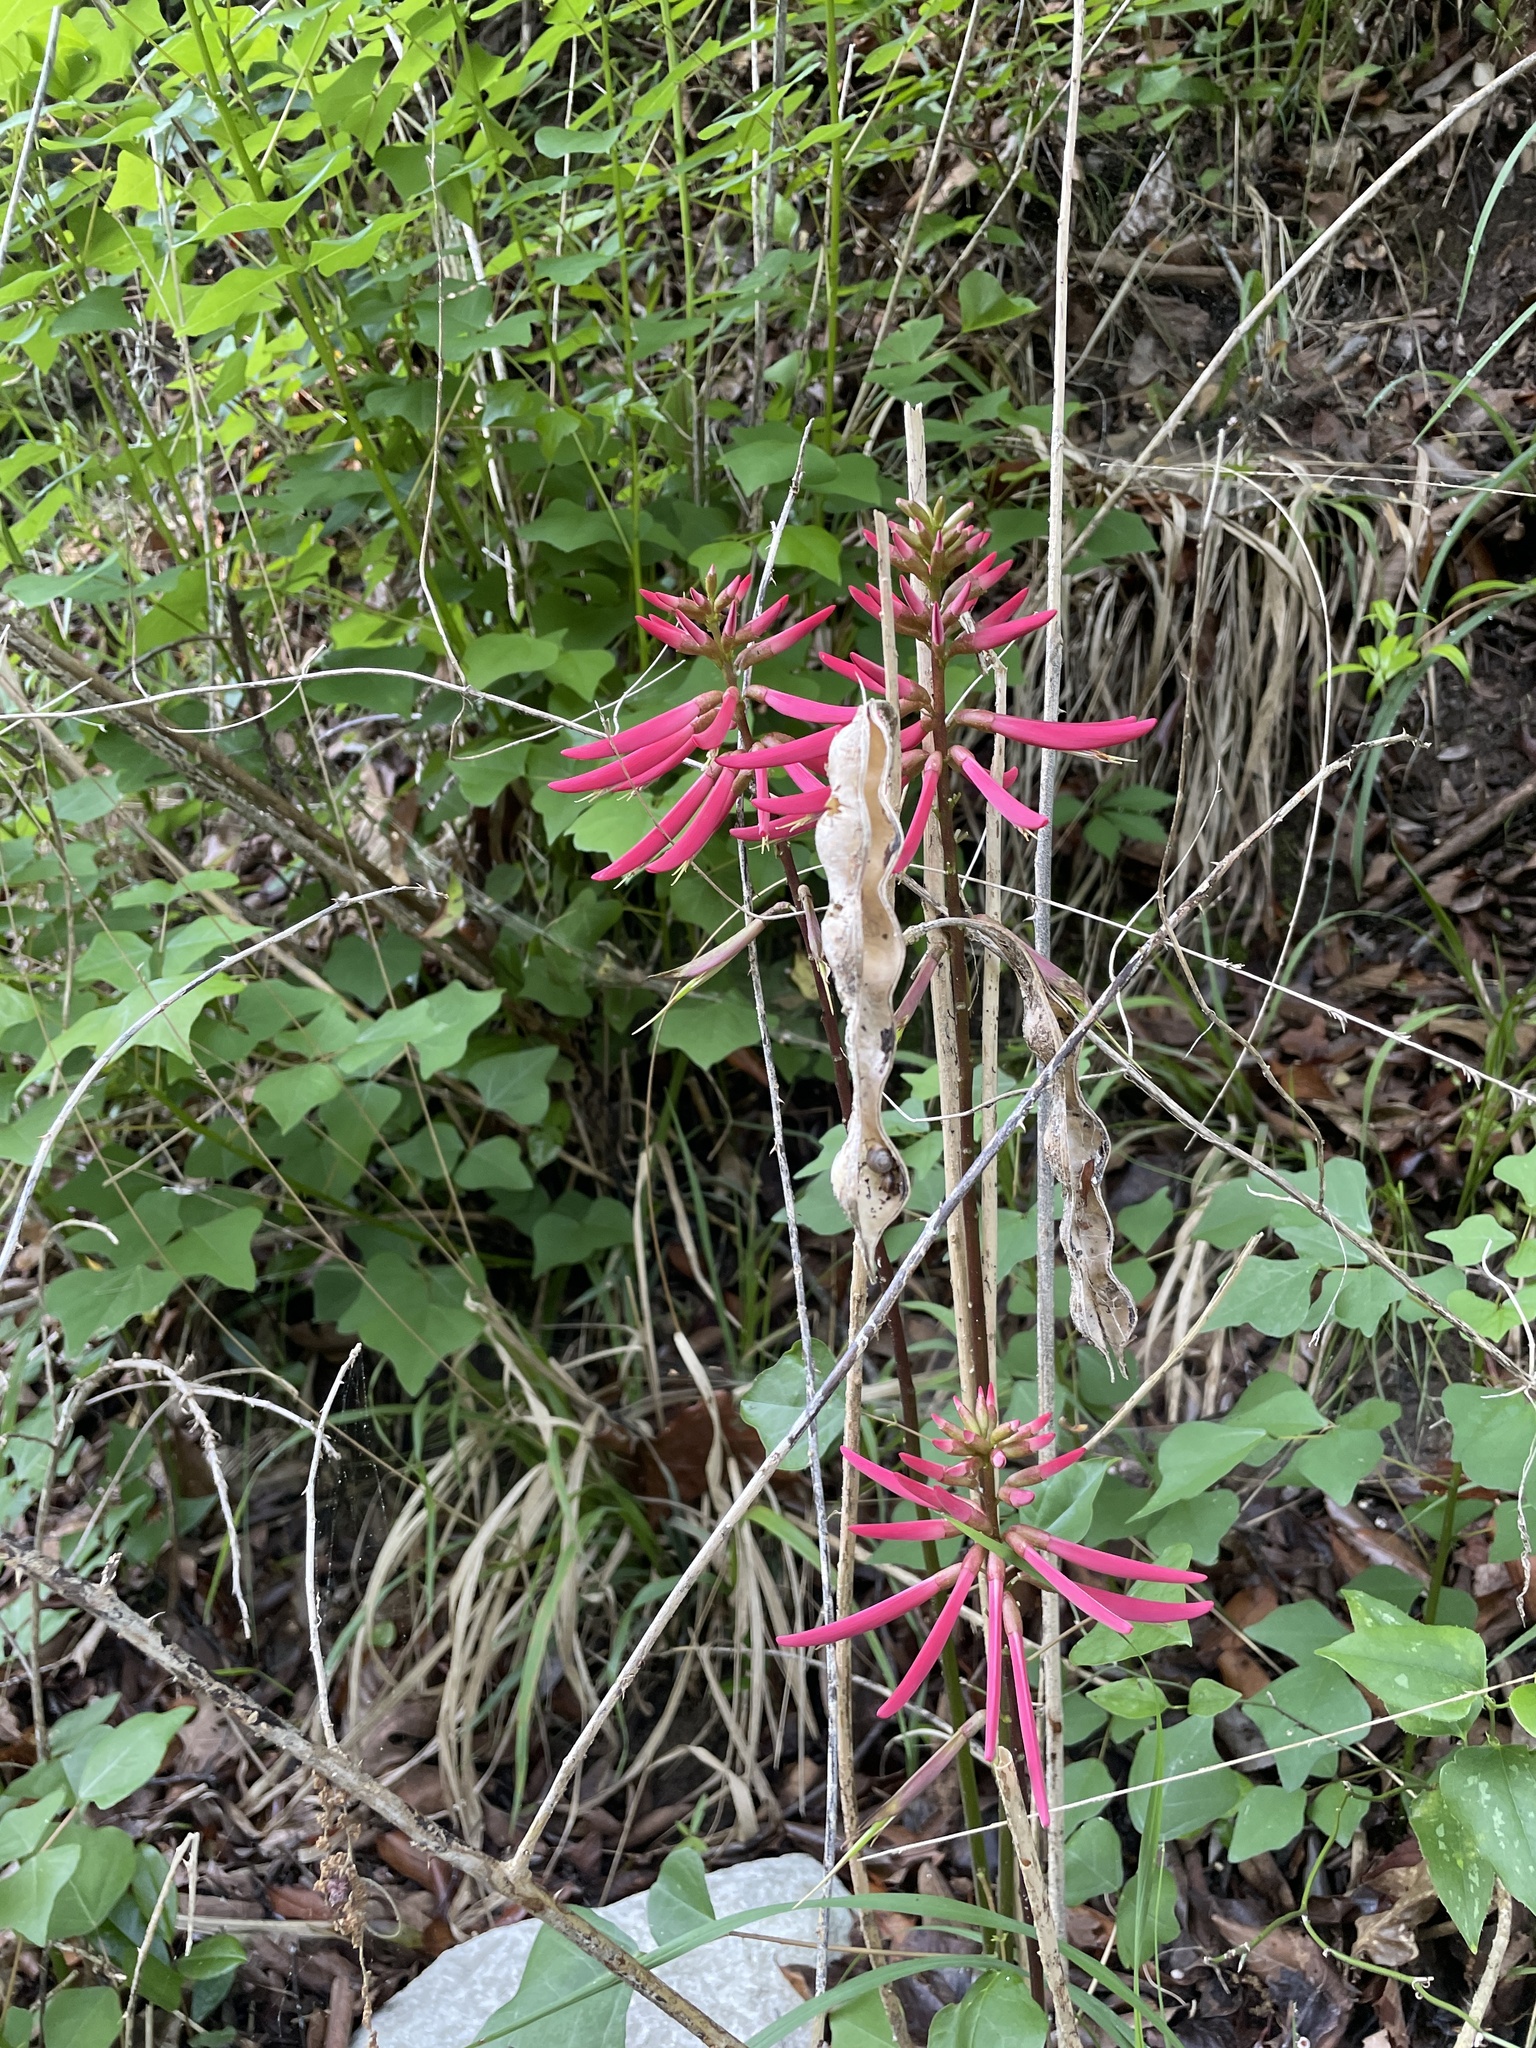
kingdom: Plantae
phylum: Tracheophyta
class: Magnoliopsida
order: Fabales
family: Fabaceae
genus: Erythrina
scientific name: Erythrina herbacea
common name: Coral-bean
